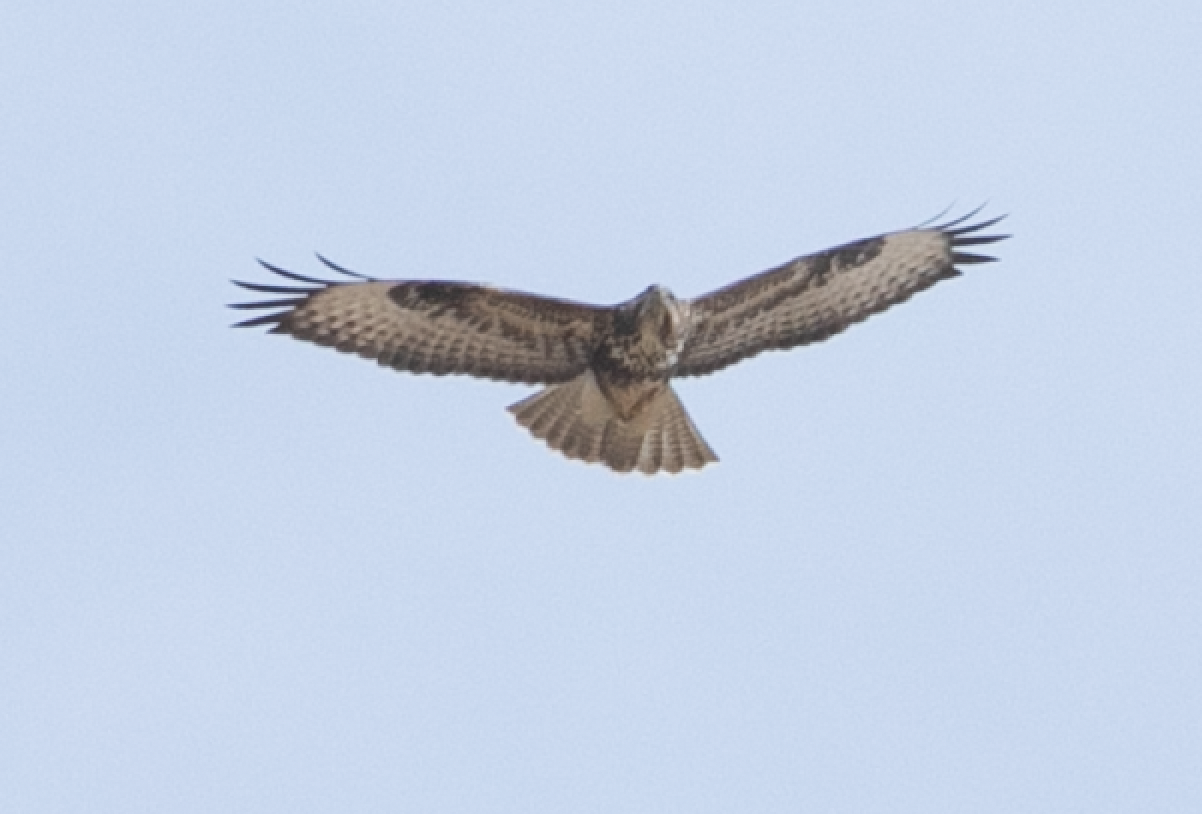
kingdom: Animalia
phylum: Chordata
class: Aves
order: Accipitriformes
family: Accipitridae
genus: Buteo
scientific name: Buteo buteo
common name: Common buzzard
